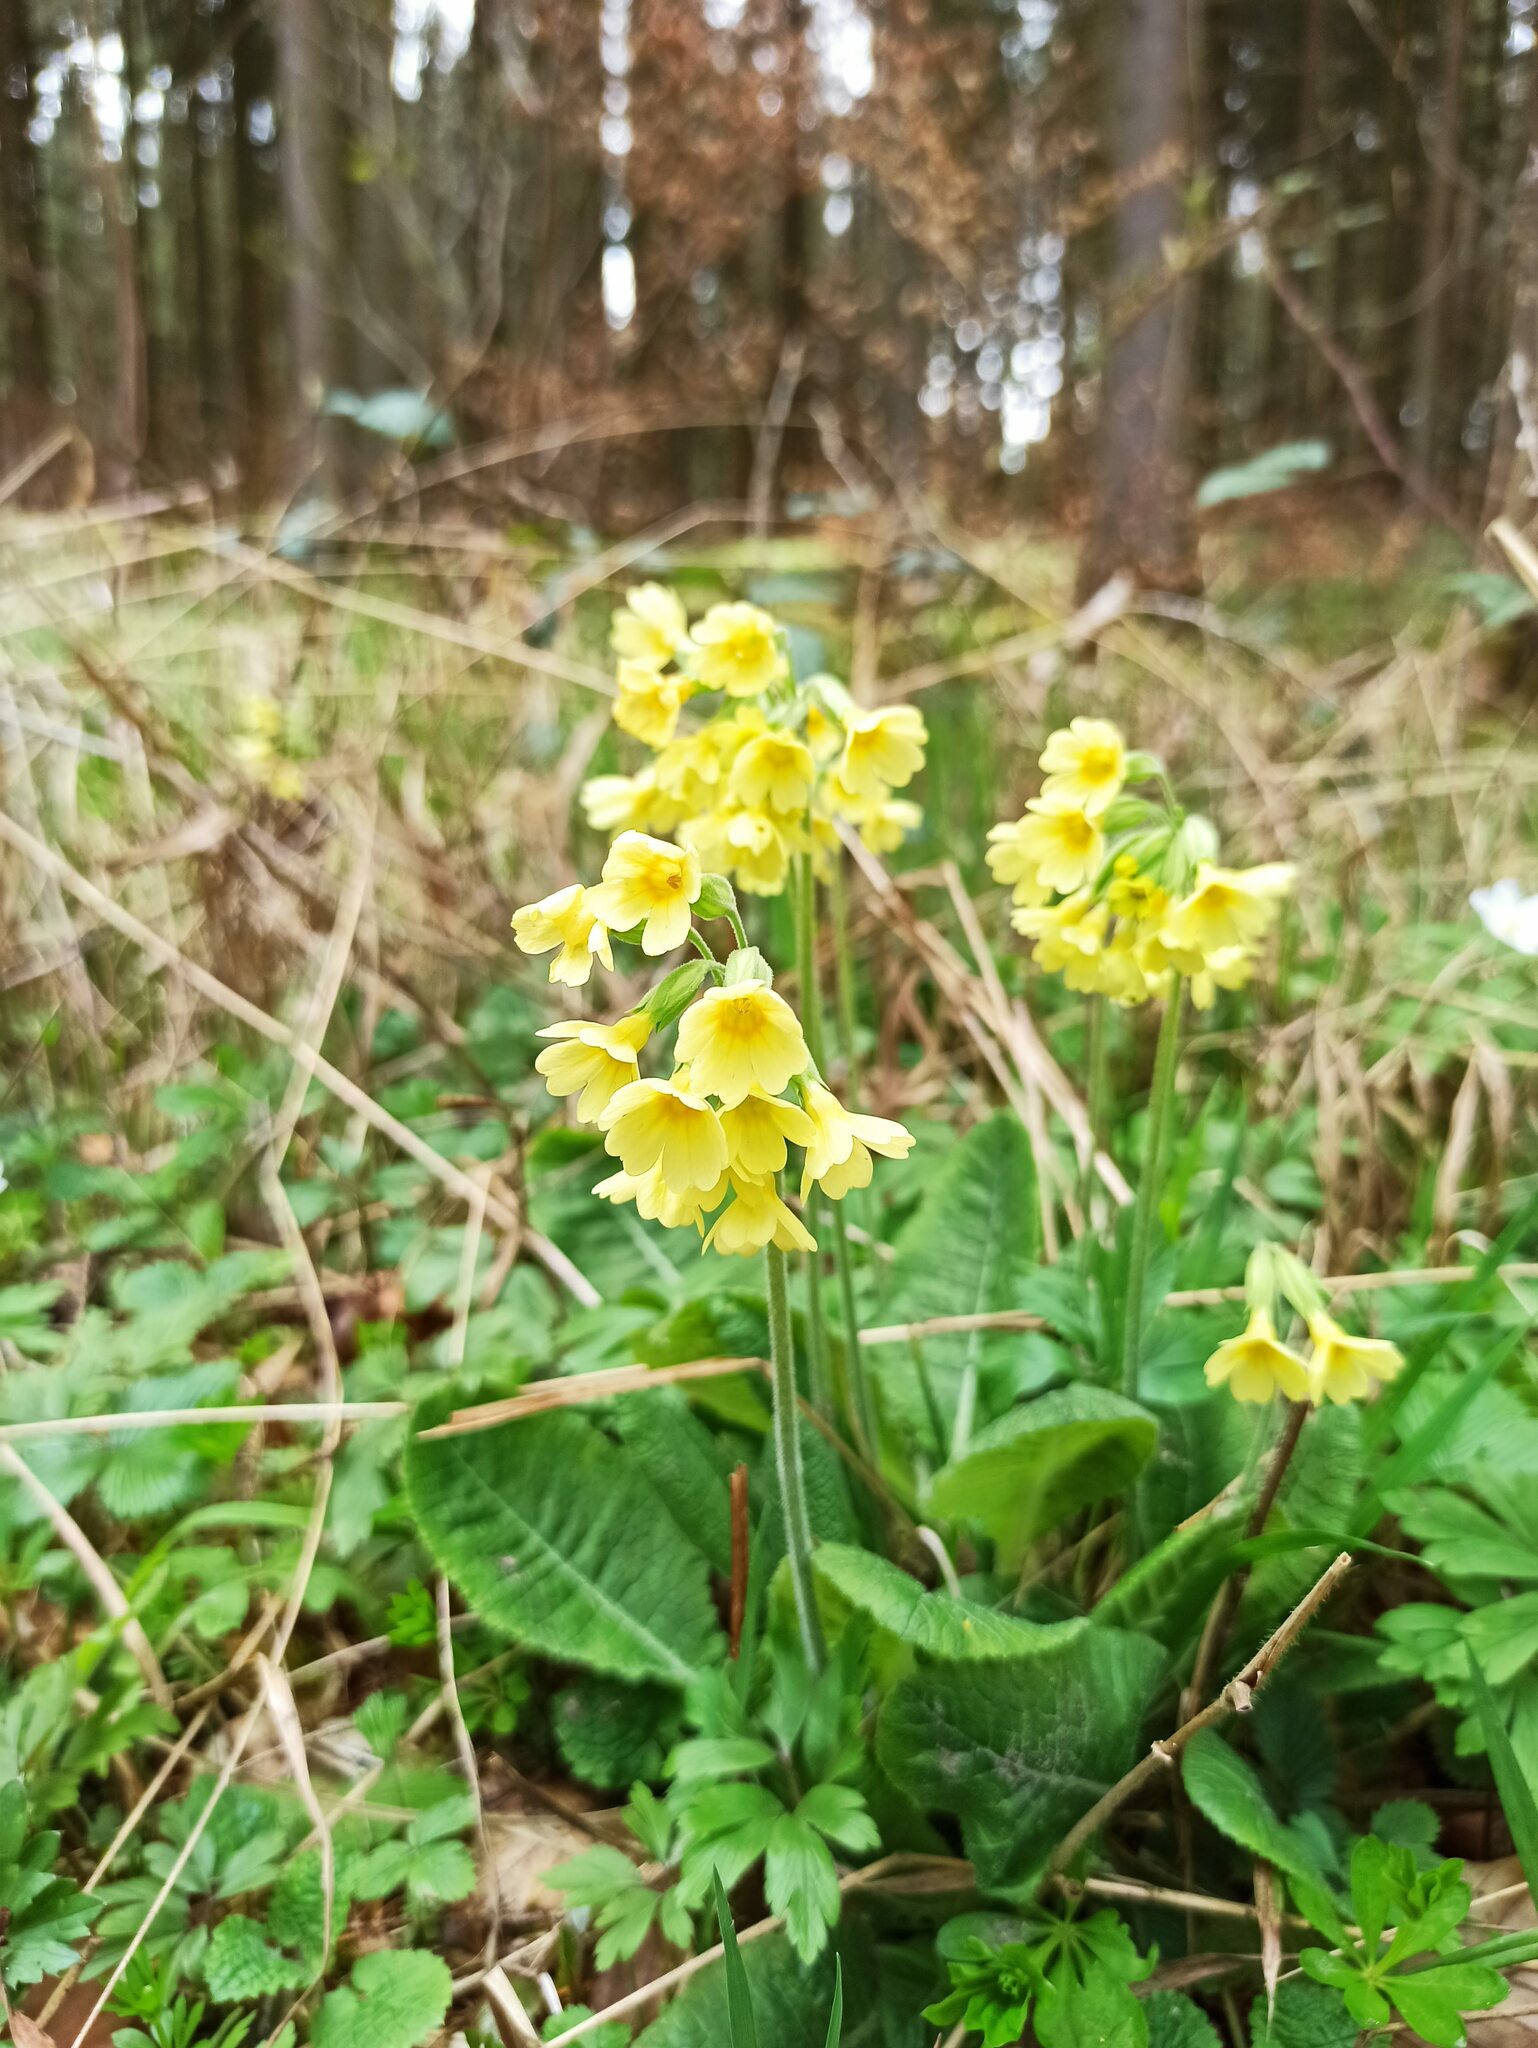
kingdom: Plantae
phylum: Tracheophyta
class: Magnoliopsida
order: Ericales
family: Primulaceae
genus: Primula
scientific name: Primula elatior
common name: Oxlip
